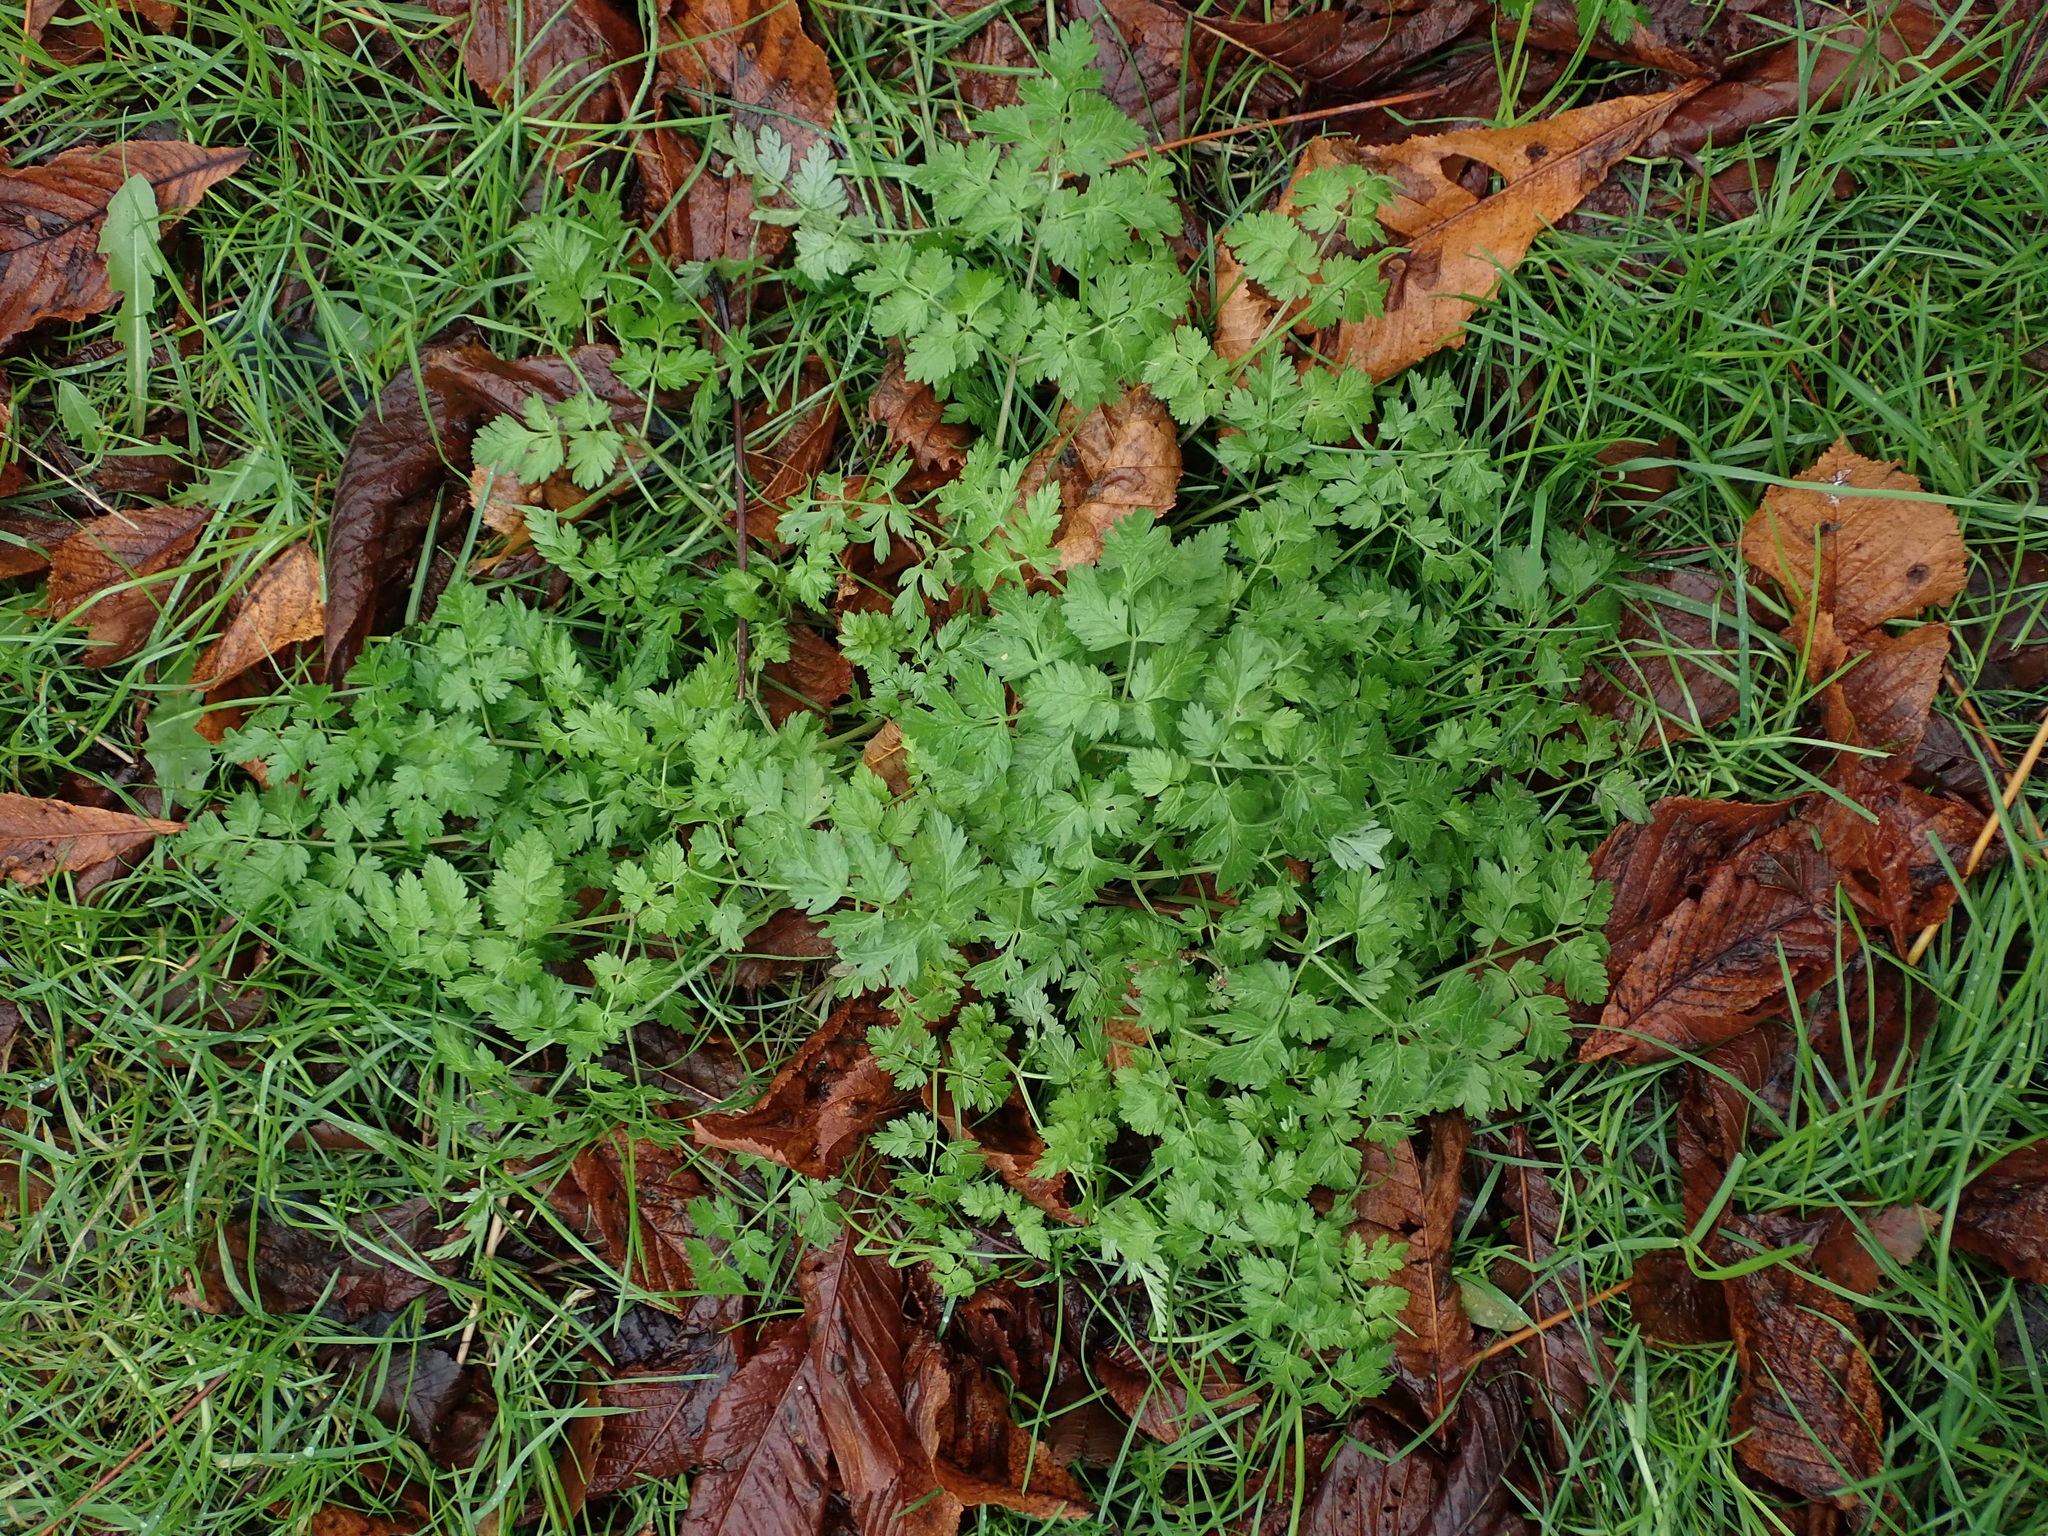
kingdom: Plantae
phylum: Tracheophyta
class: Magnoliopsida
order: Apiales
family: Apiaceae
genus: Anthriscus
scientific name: Anthriscus sylvestris
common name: Cow parsley
